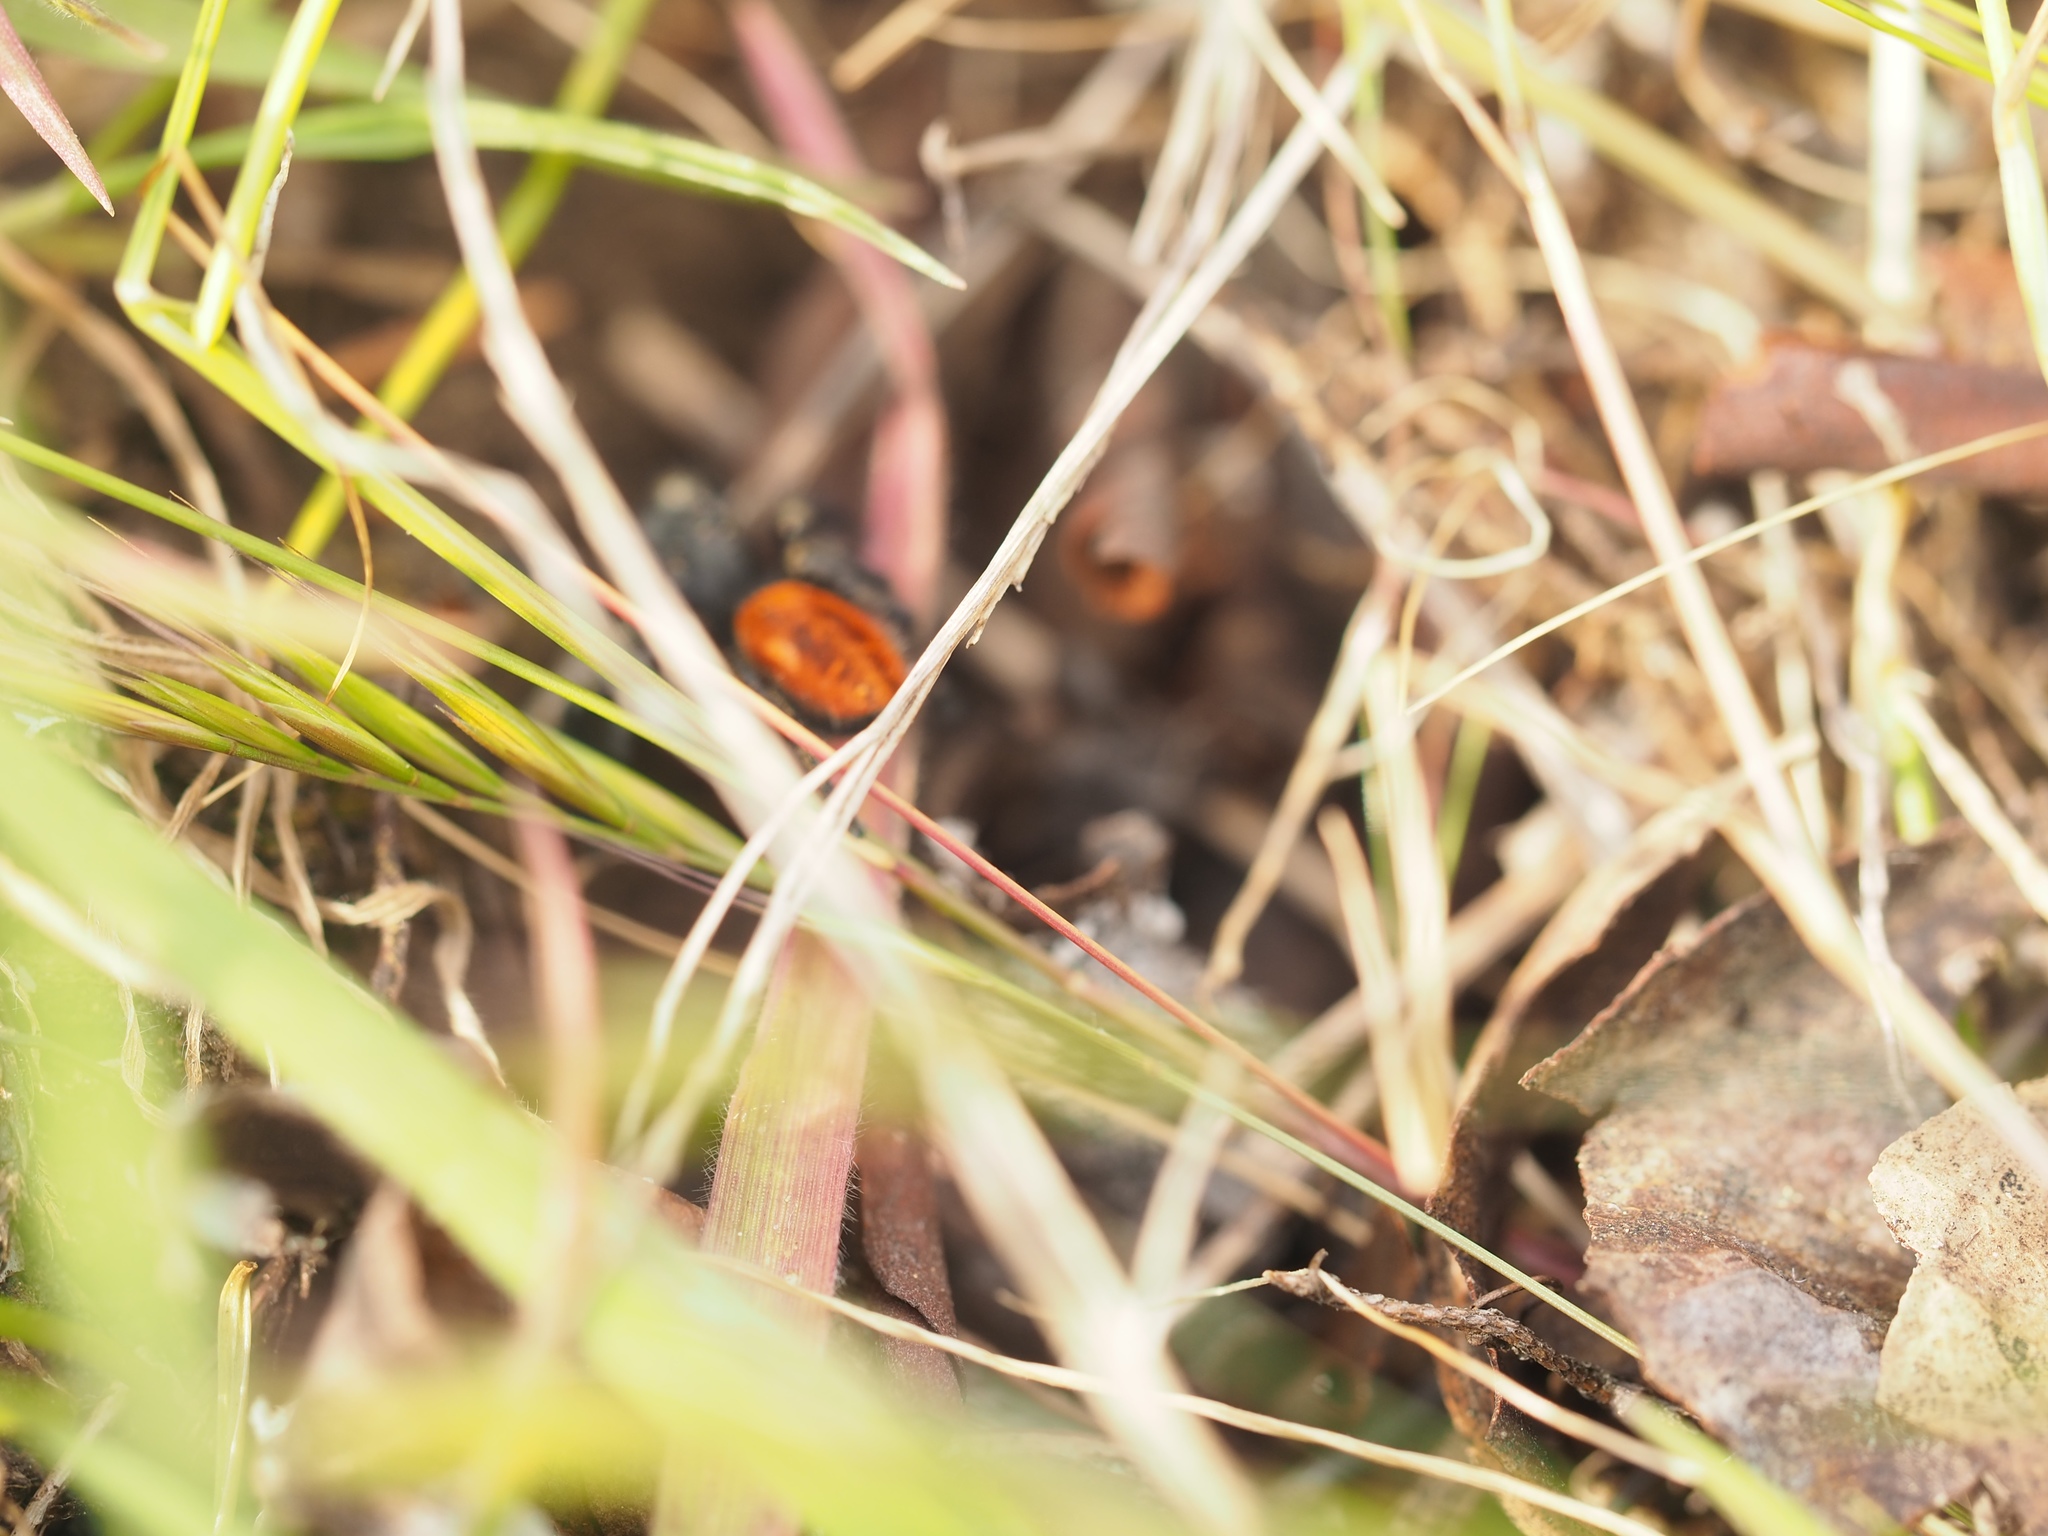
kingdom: Animalia
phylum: Arthropoda
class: Arachnida
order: Araneae
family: Salticidae
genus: Phidippus
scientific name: Phidippus johnsoni
